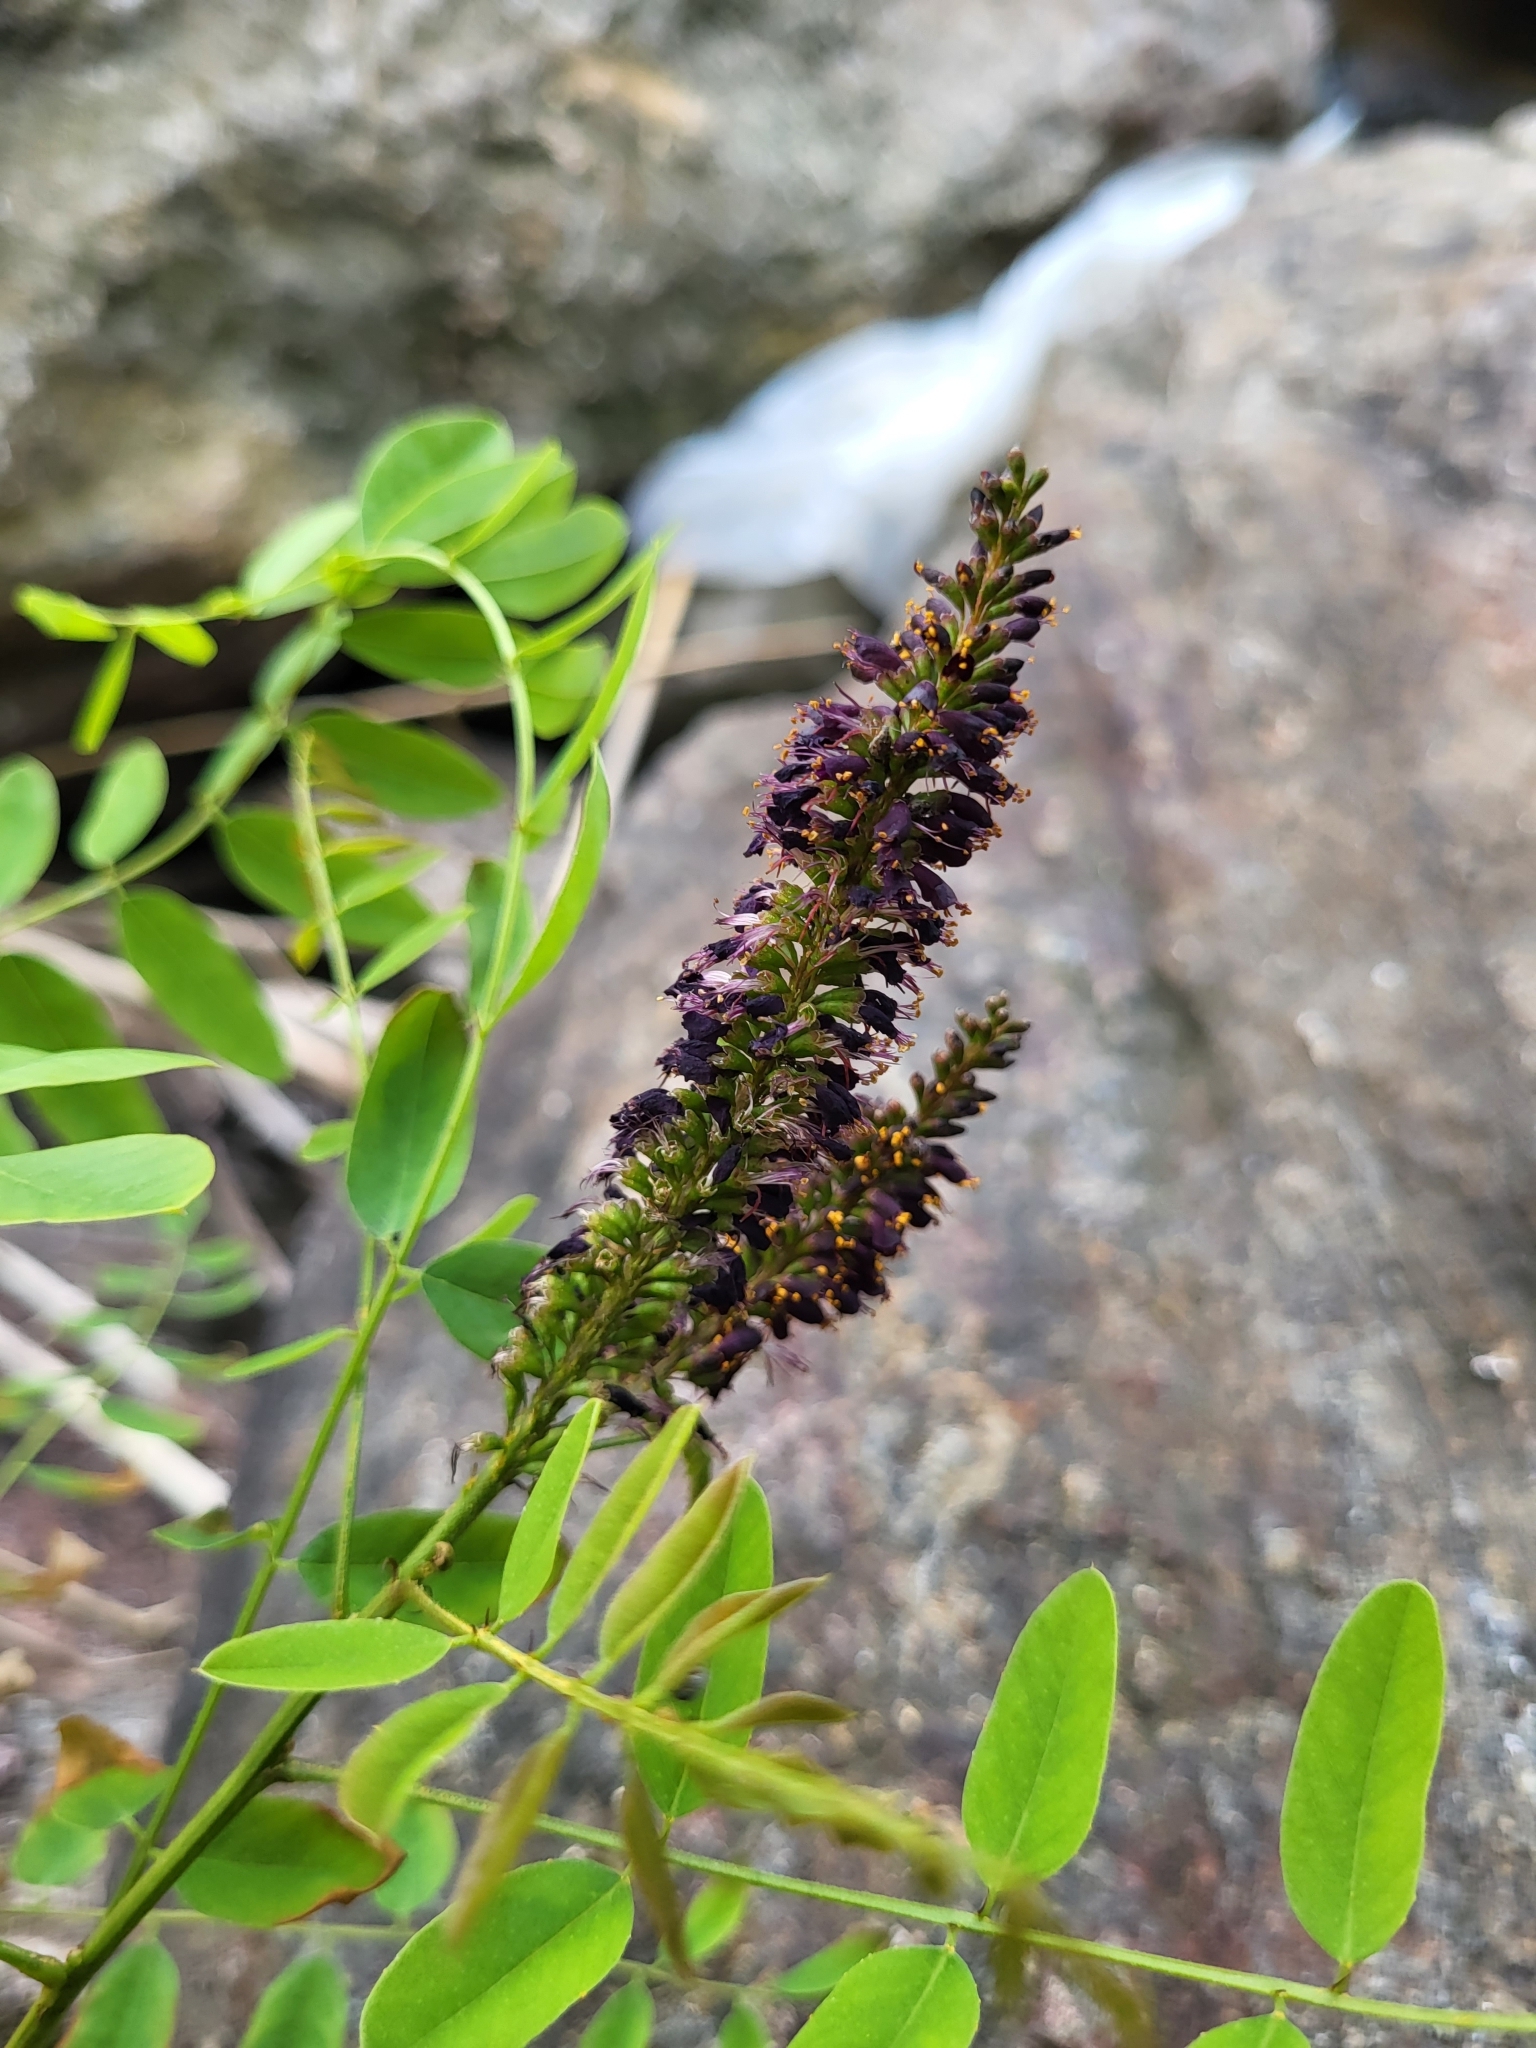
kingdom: Plantae
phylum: Tracheophyta
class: Magnoliopsida
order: Fabales
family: Fabaceae
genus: Amorpha
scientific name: Amorpha fruticosa
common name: False indigo
